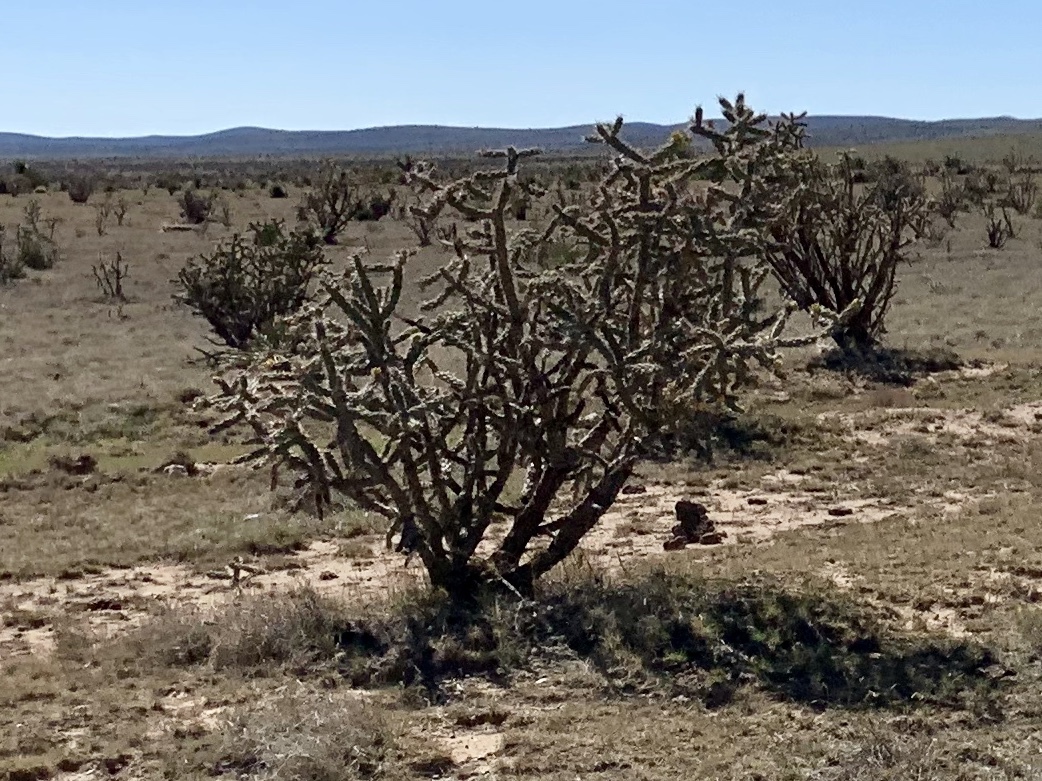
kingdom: Plantae
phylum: Tracheophyta
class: Magnoliopsida
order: Caryophyllales
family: Cactaceae
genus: Cylindropuntia
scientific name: Cylindropuntia imbricata
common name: Candelabrum cactus
